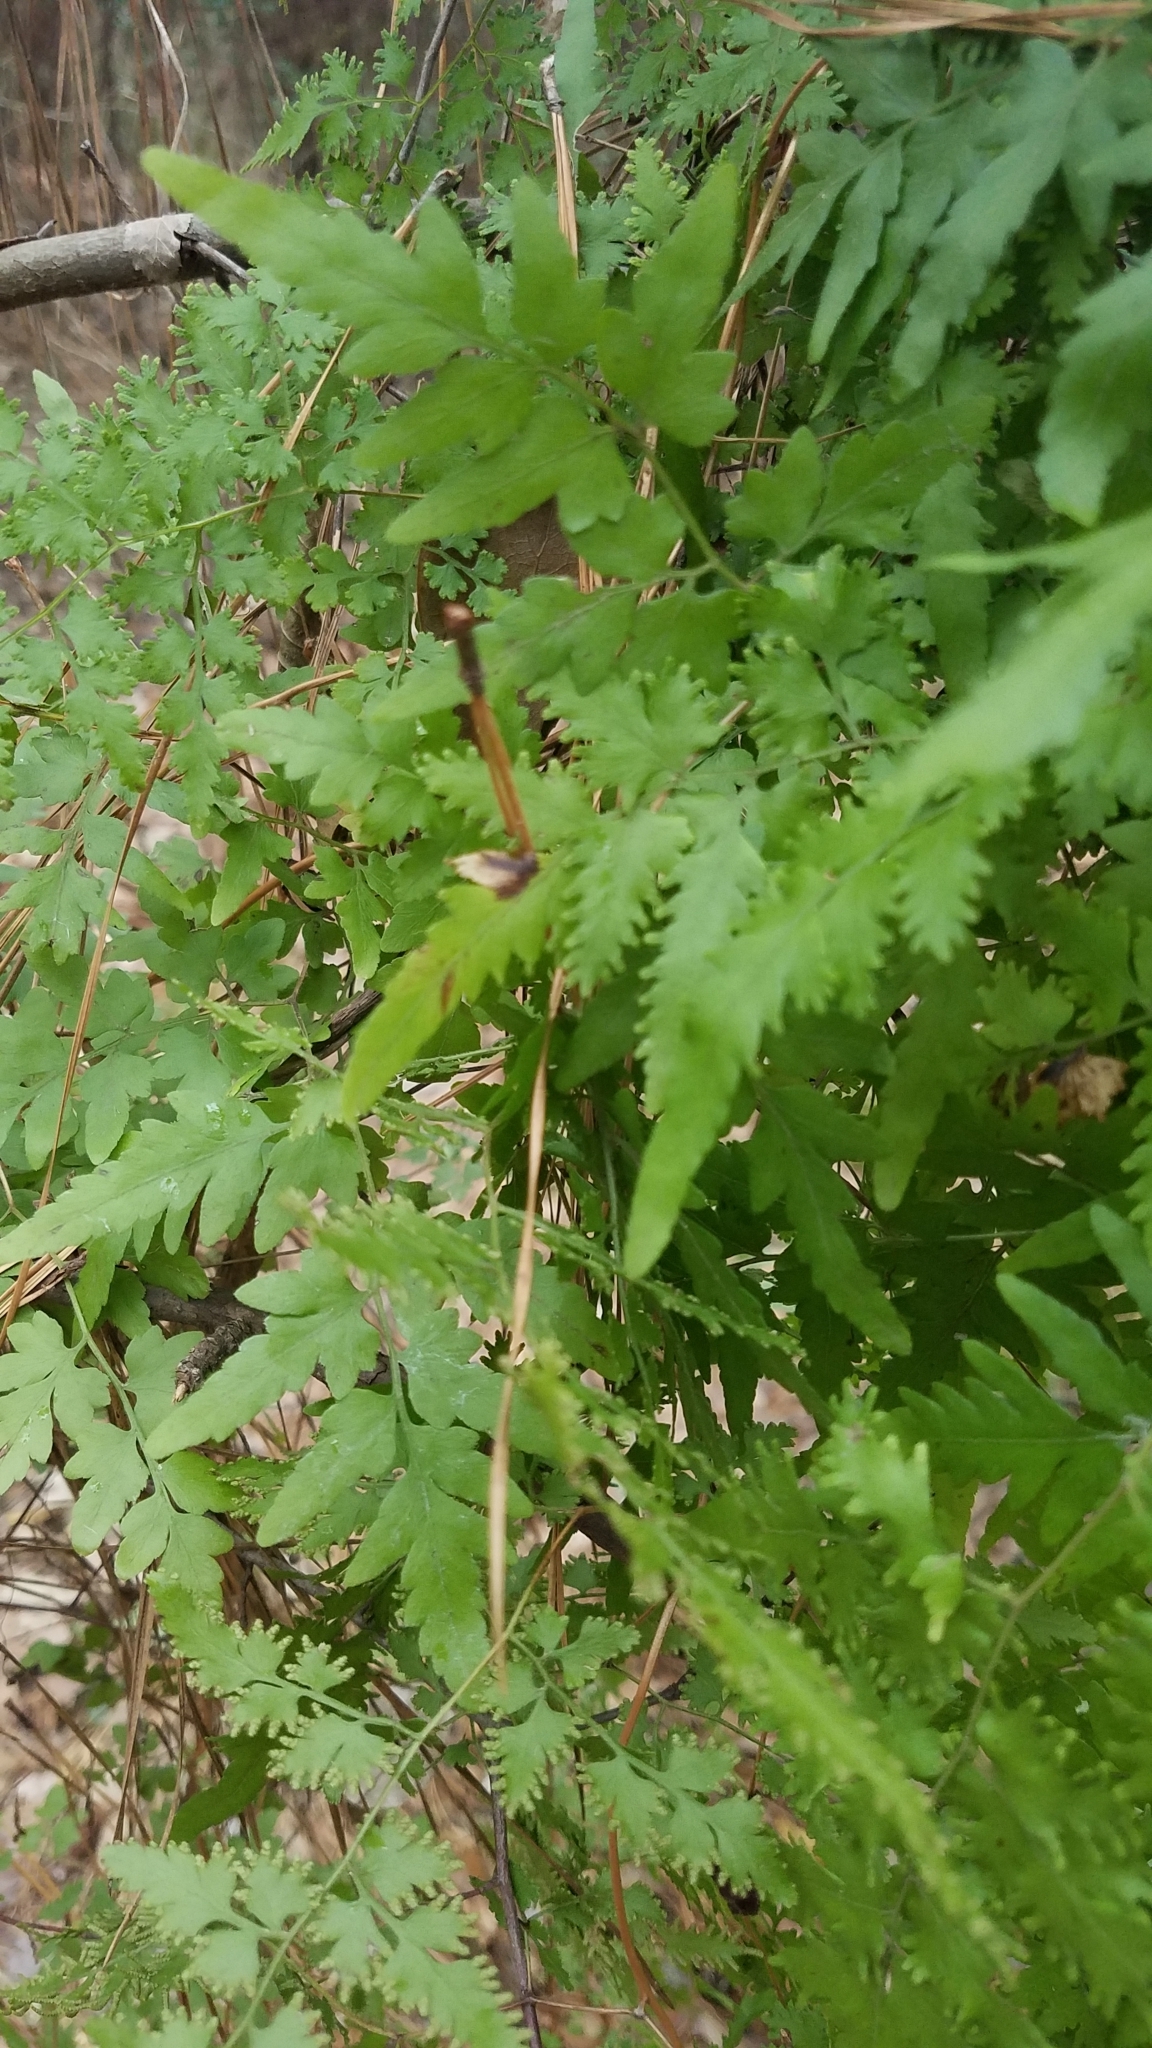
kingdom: Plantae
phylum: Tracheophyta
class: Polypodiopsida
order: Schizaeales
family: Lygodiaceae
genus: Lygodium
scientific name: Lygodium japonicum
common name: Japanese climbing fern
